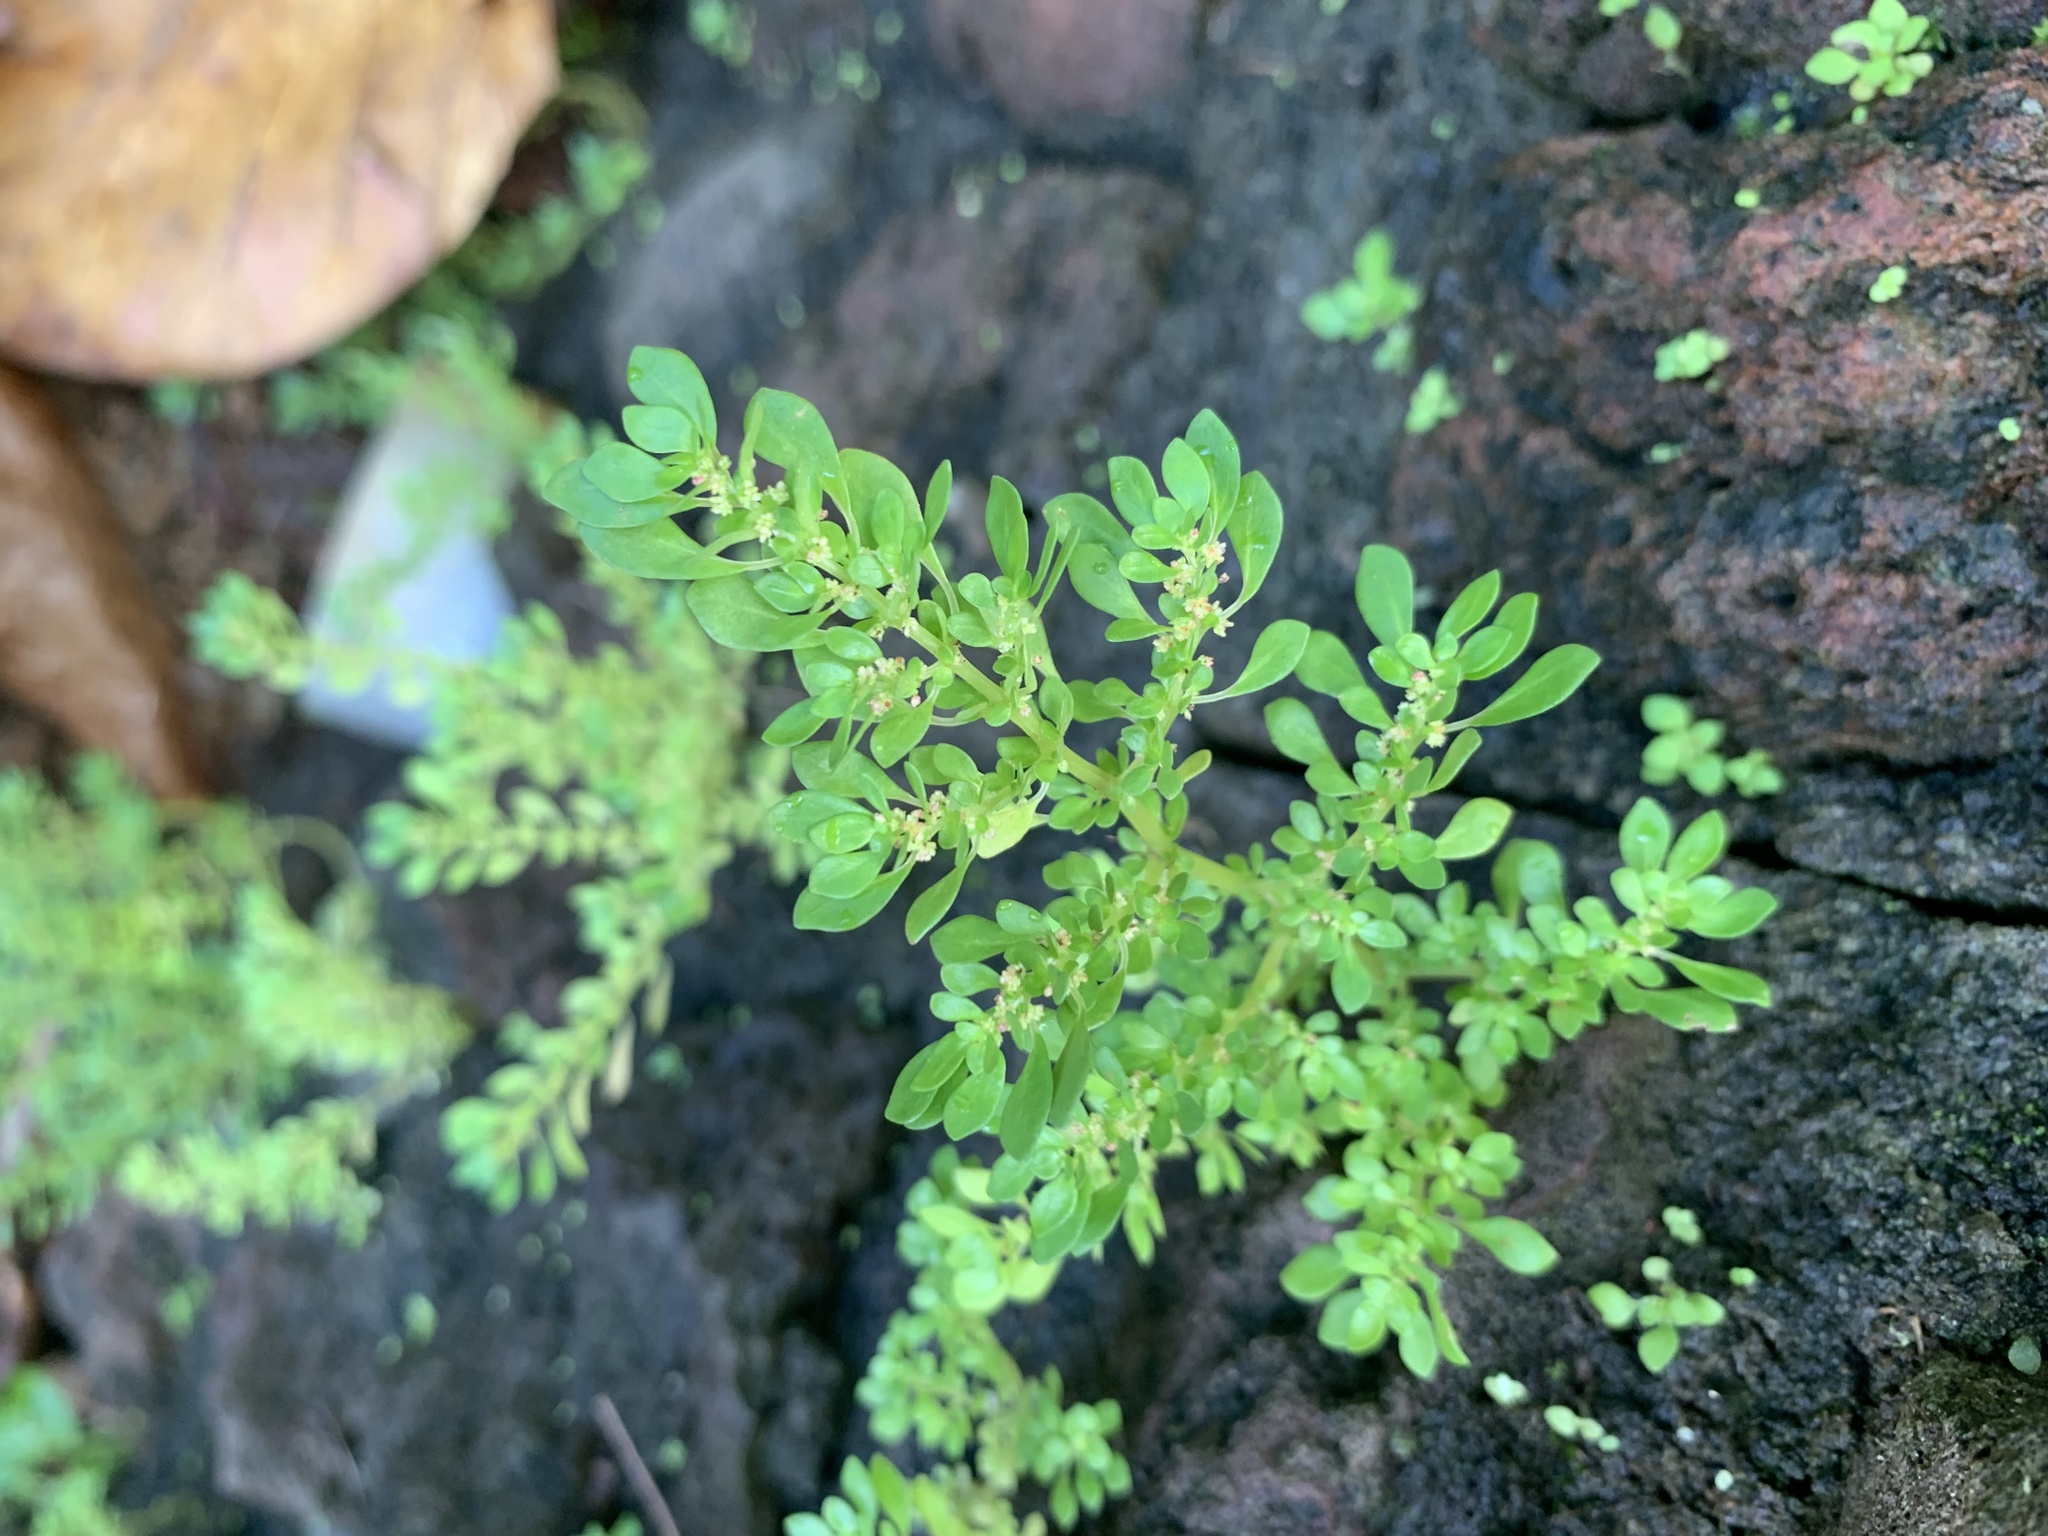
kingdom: Plantae
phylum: Tracheophyta
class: Magnoliopsida
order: Rosales
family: Urticaceae
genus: Pilea
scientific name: Pilea microphylla
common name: Artillery-plant
